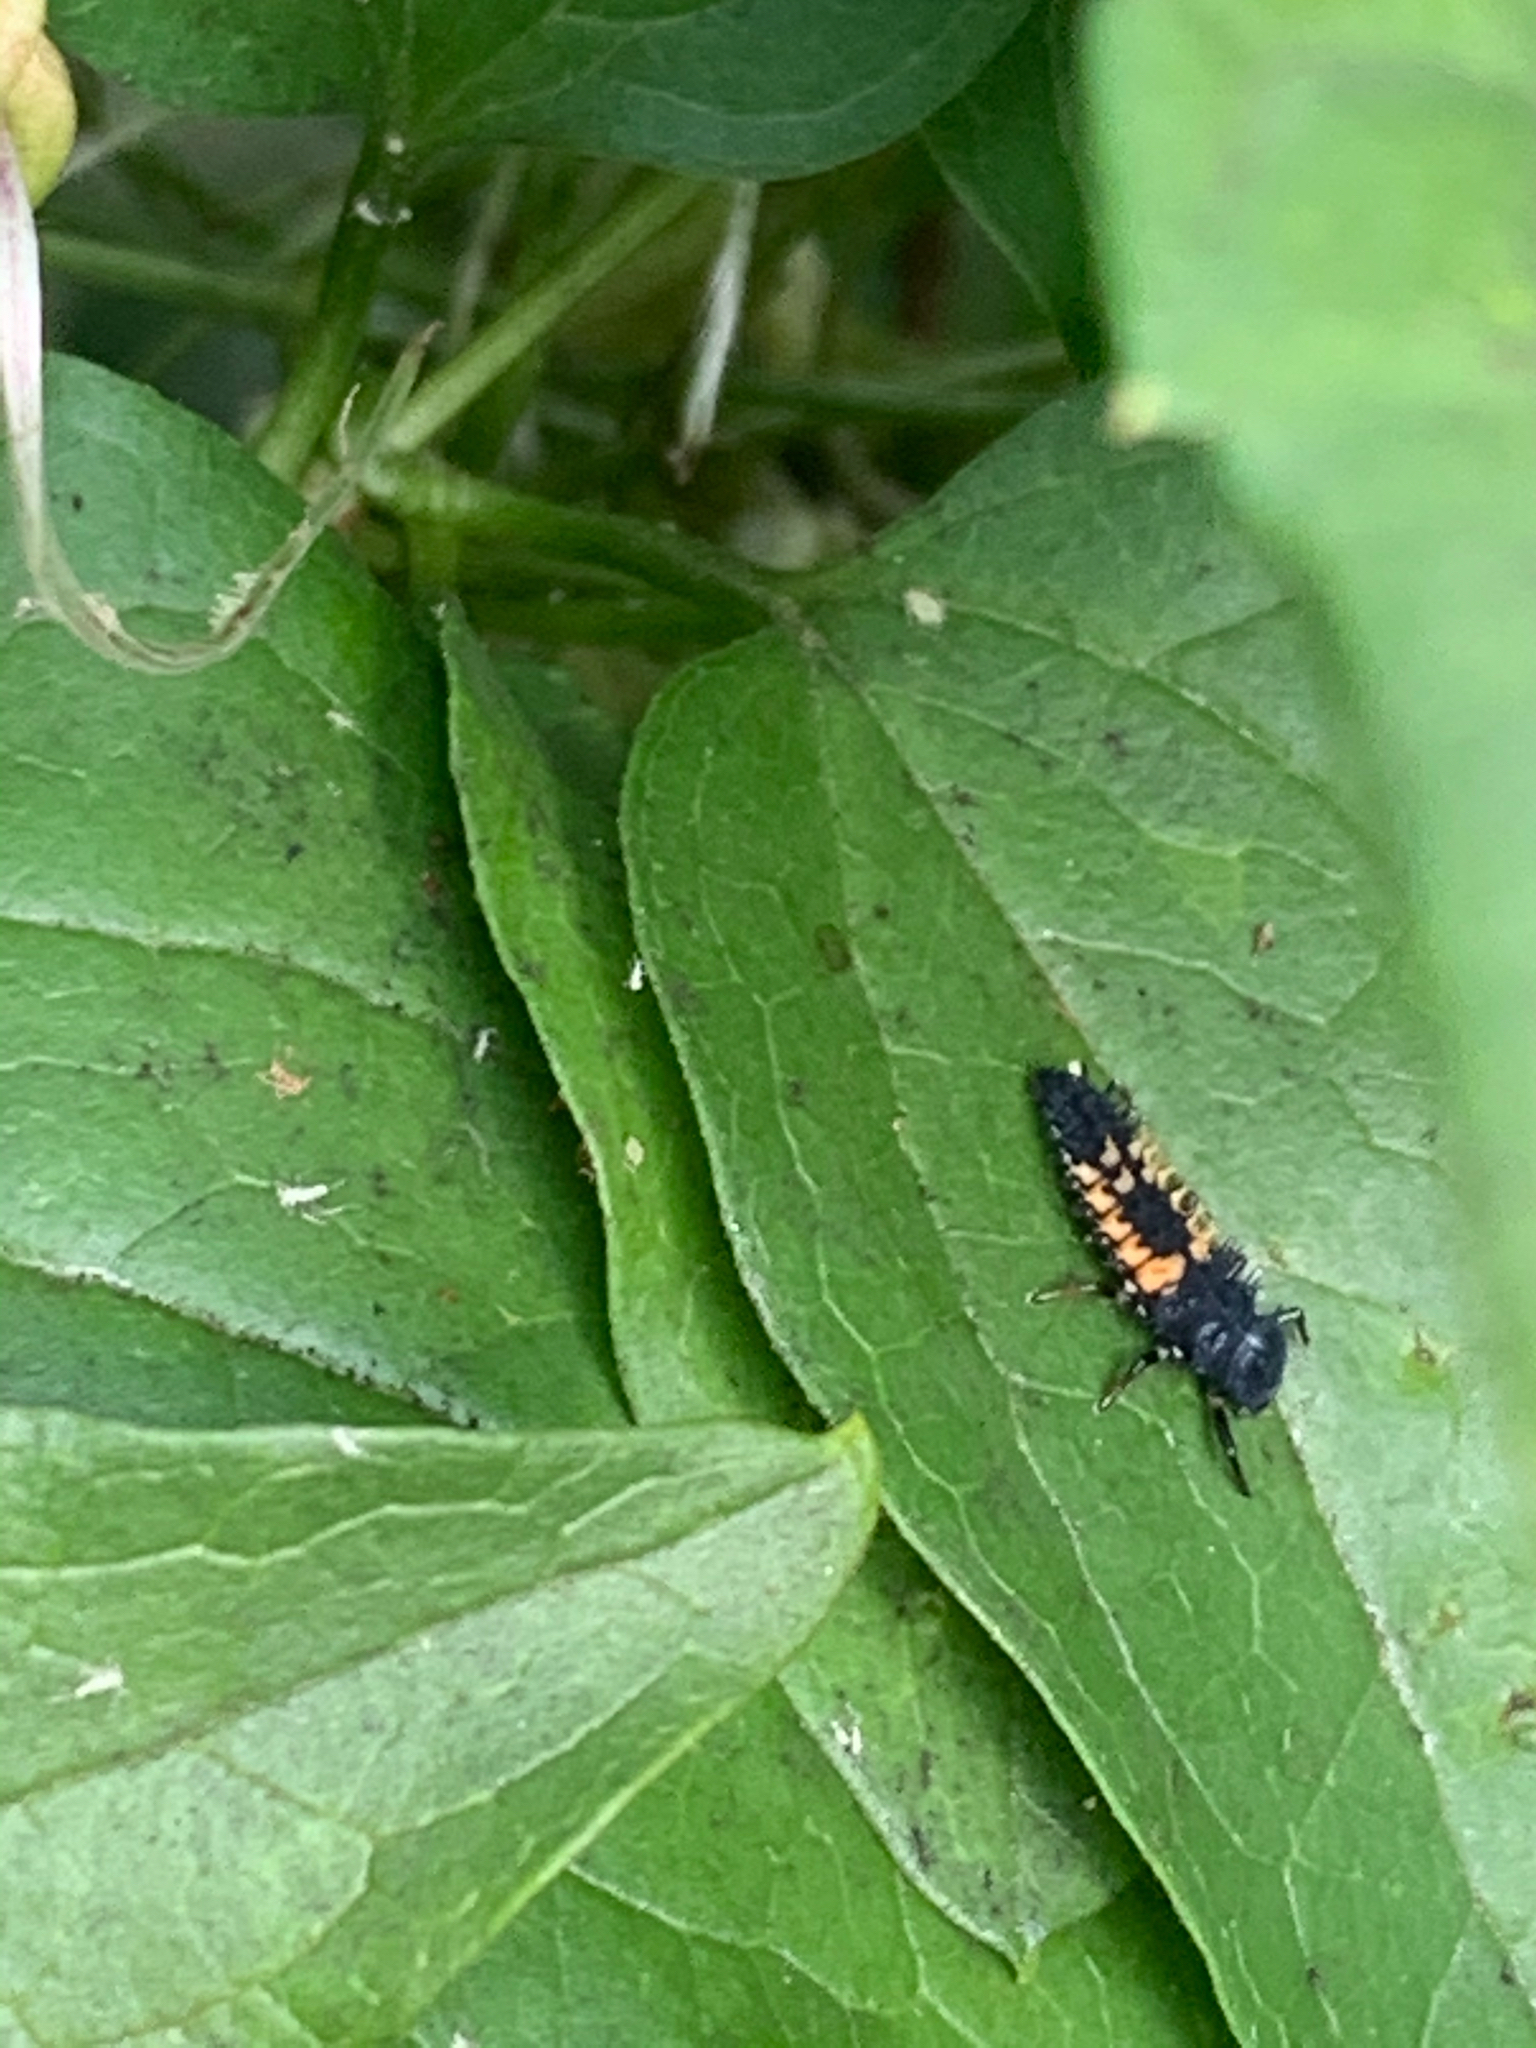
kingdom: Animalia
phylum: Arthropoda
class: Insecta
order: Coleoptera
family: Coccinellidae
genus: Harmonia
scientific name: Harmonia axyridis
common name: Harlequin ladybird
